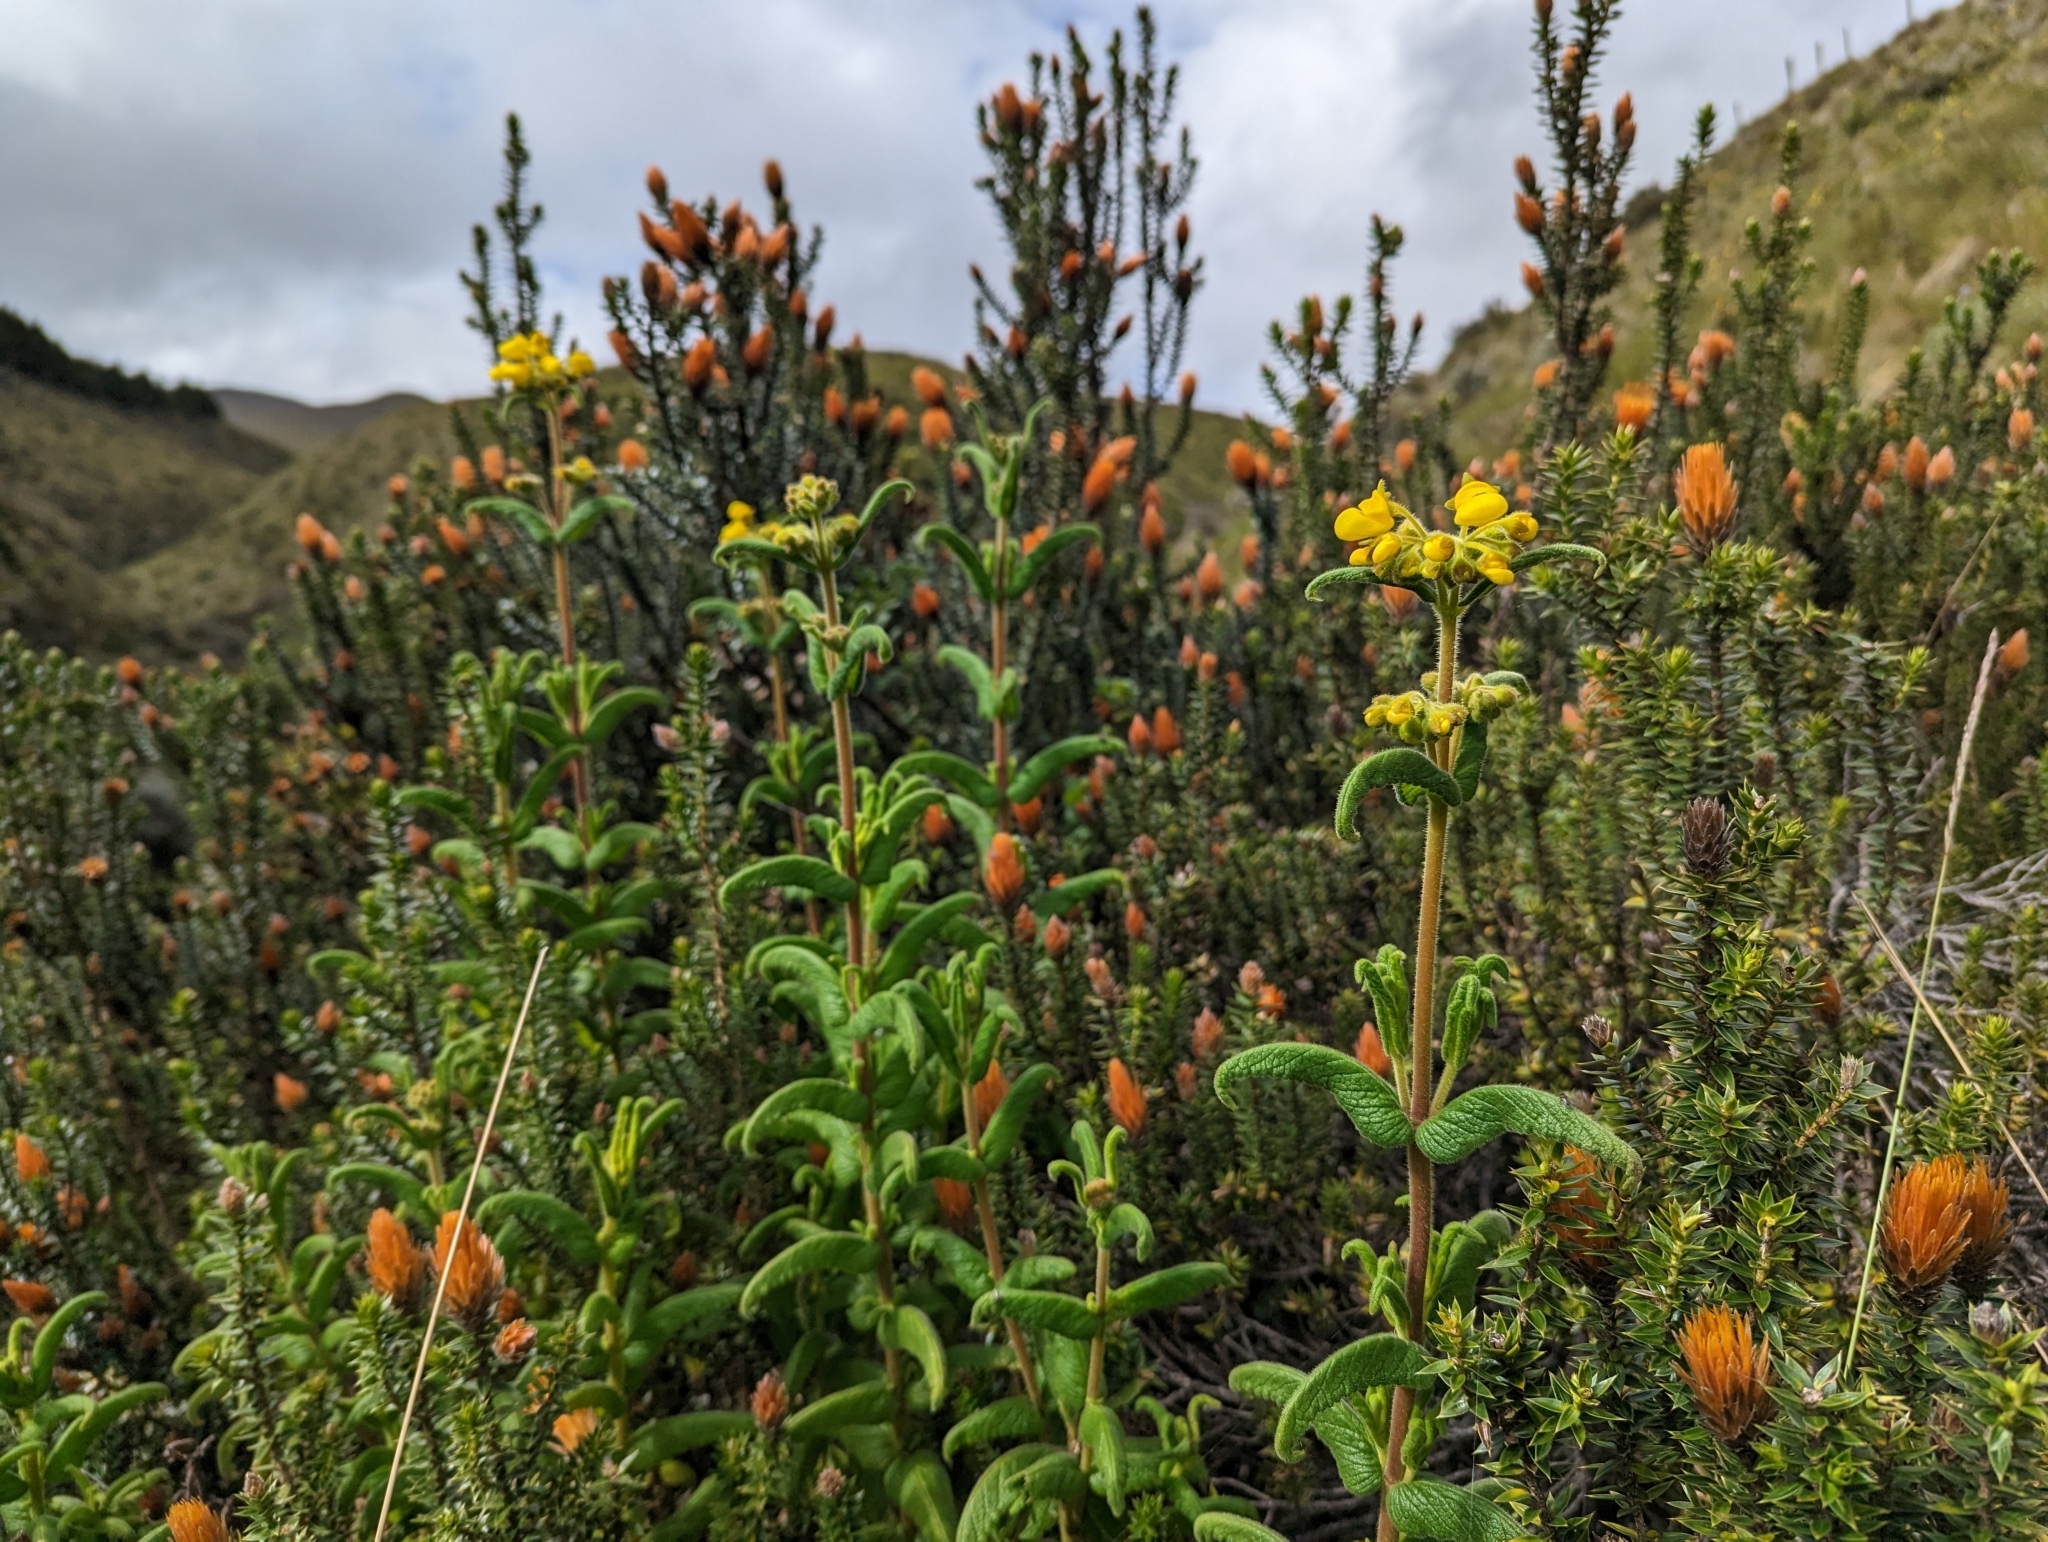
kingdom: Plantae
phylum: Tracheophyta
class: Magnoliopsida
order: Lamiales
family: Calceolariaceae
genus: Calceolaria
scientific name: Calceolaria crenata
